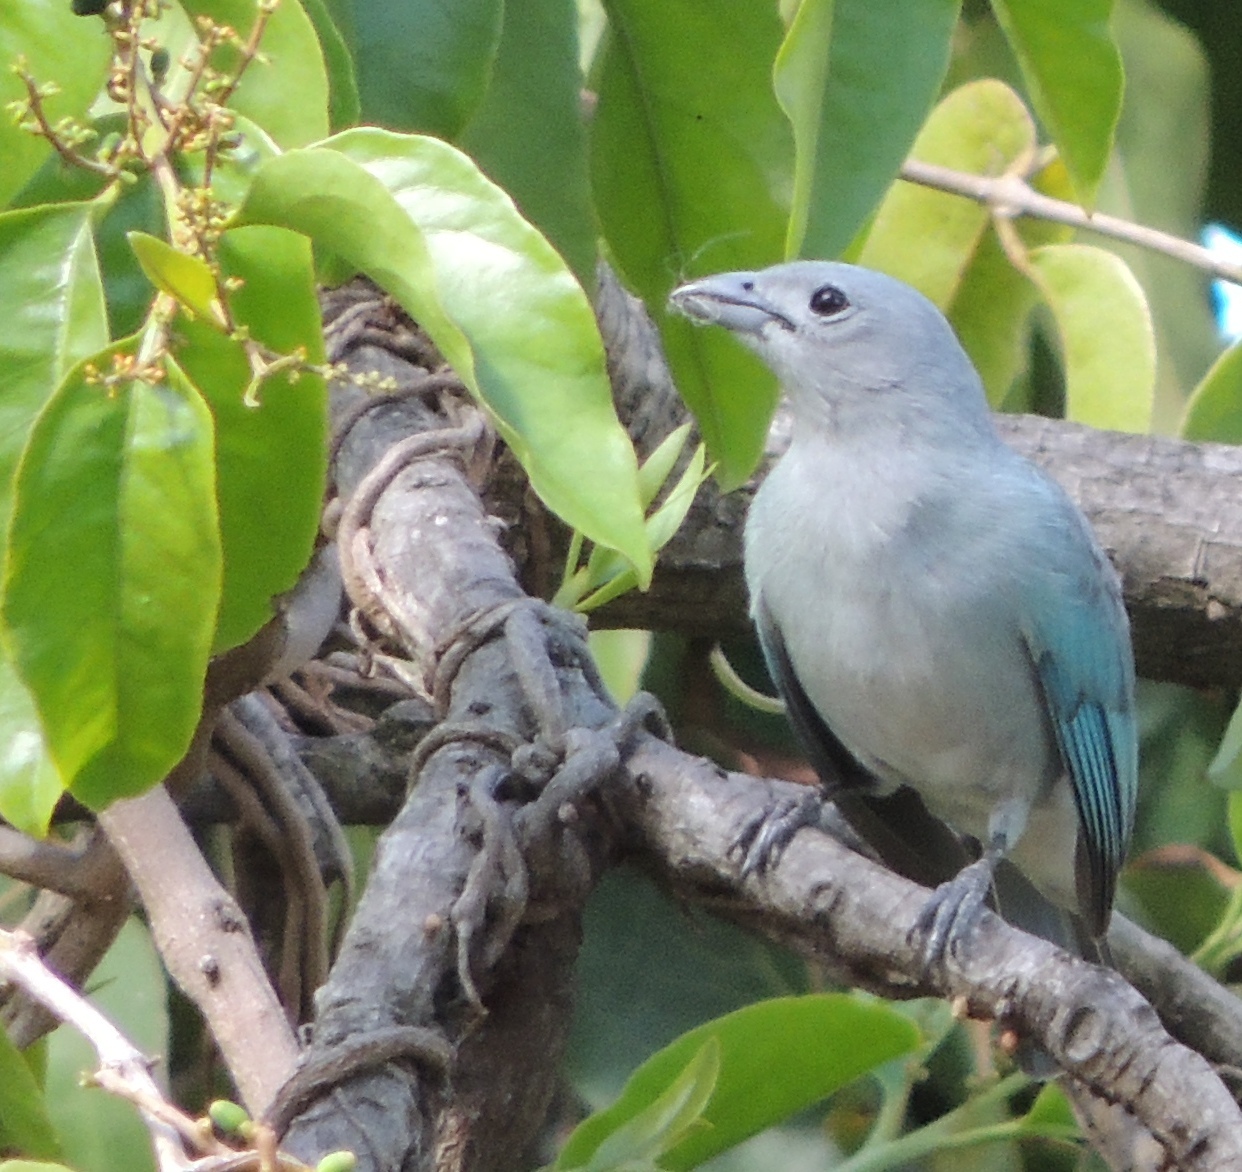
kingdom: Animalia
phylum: Chordata
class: Aves
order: Passeriformes
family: Thraupidae
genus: Thraupis
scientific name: Thraupis sayaca
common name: Sayaca tanager
